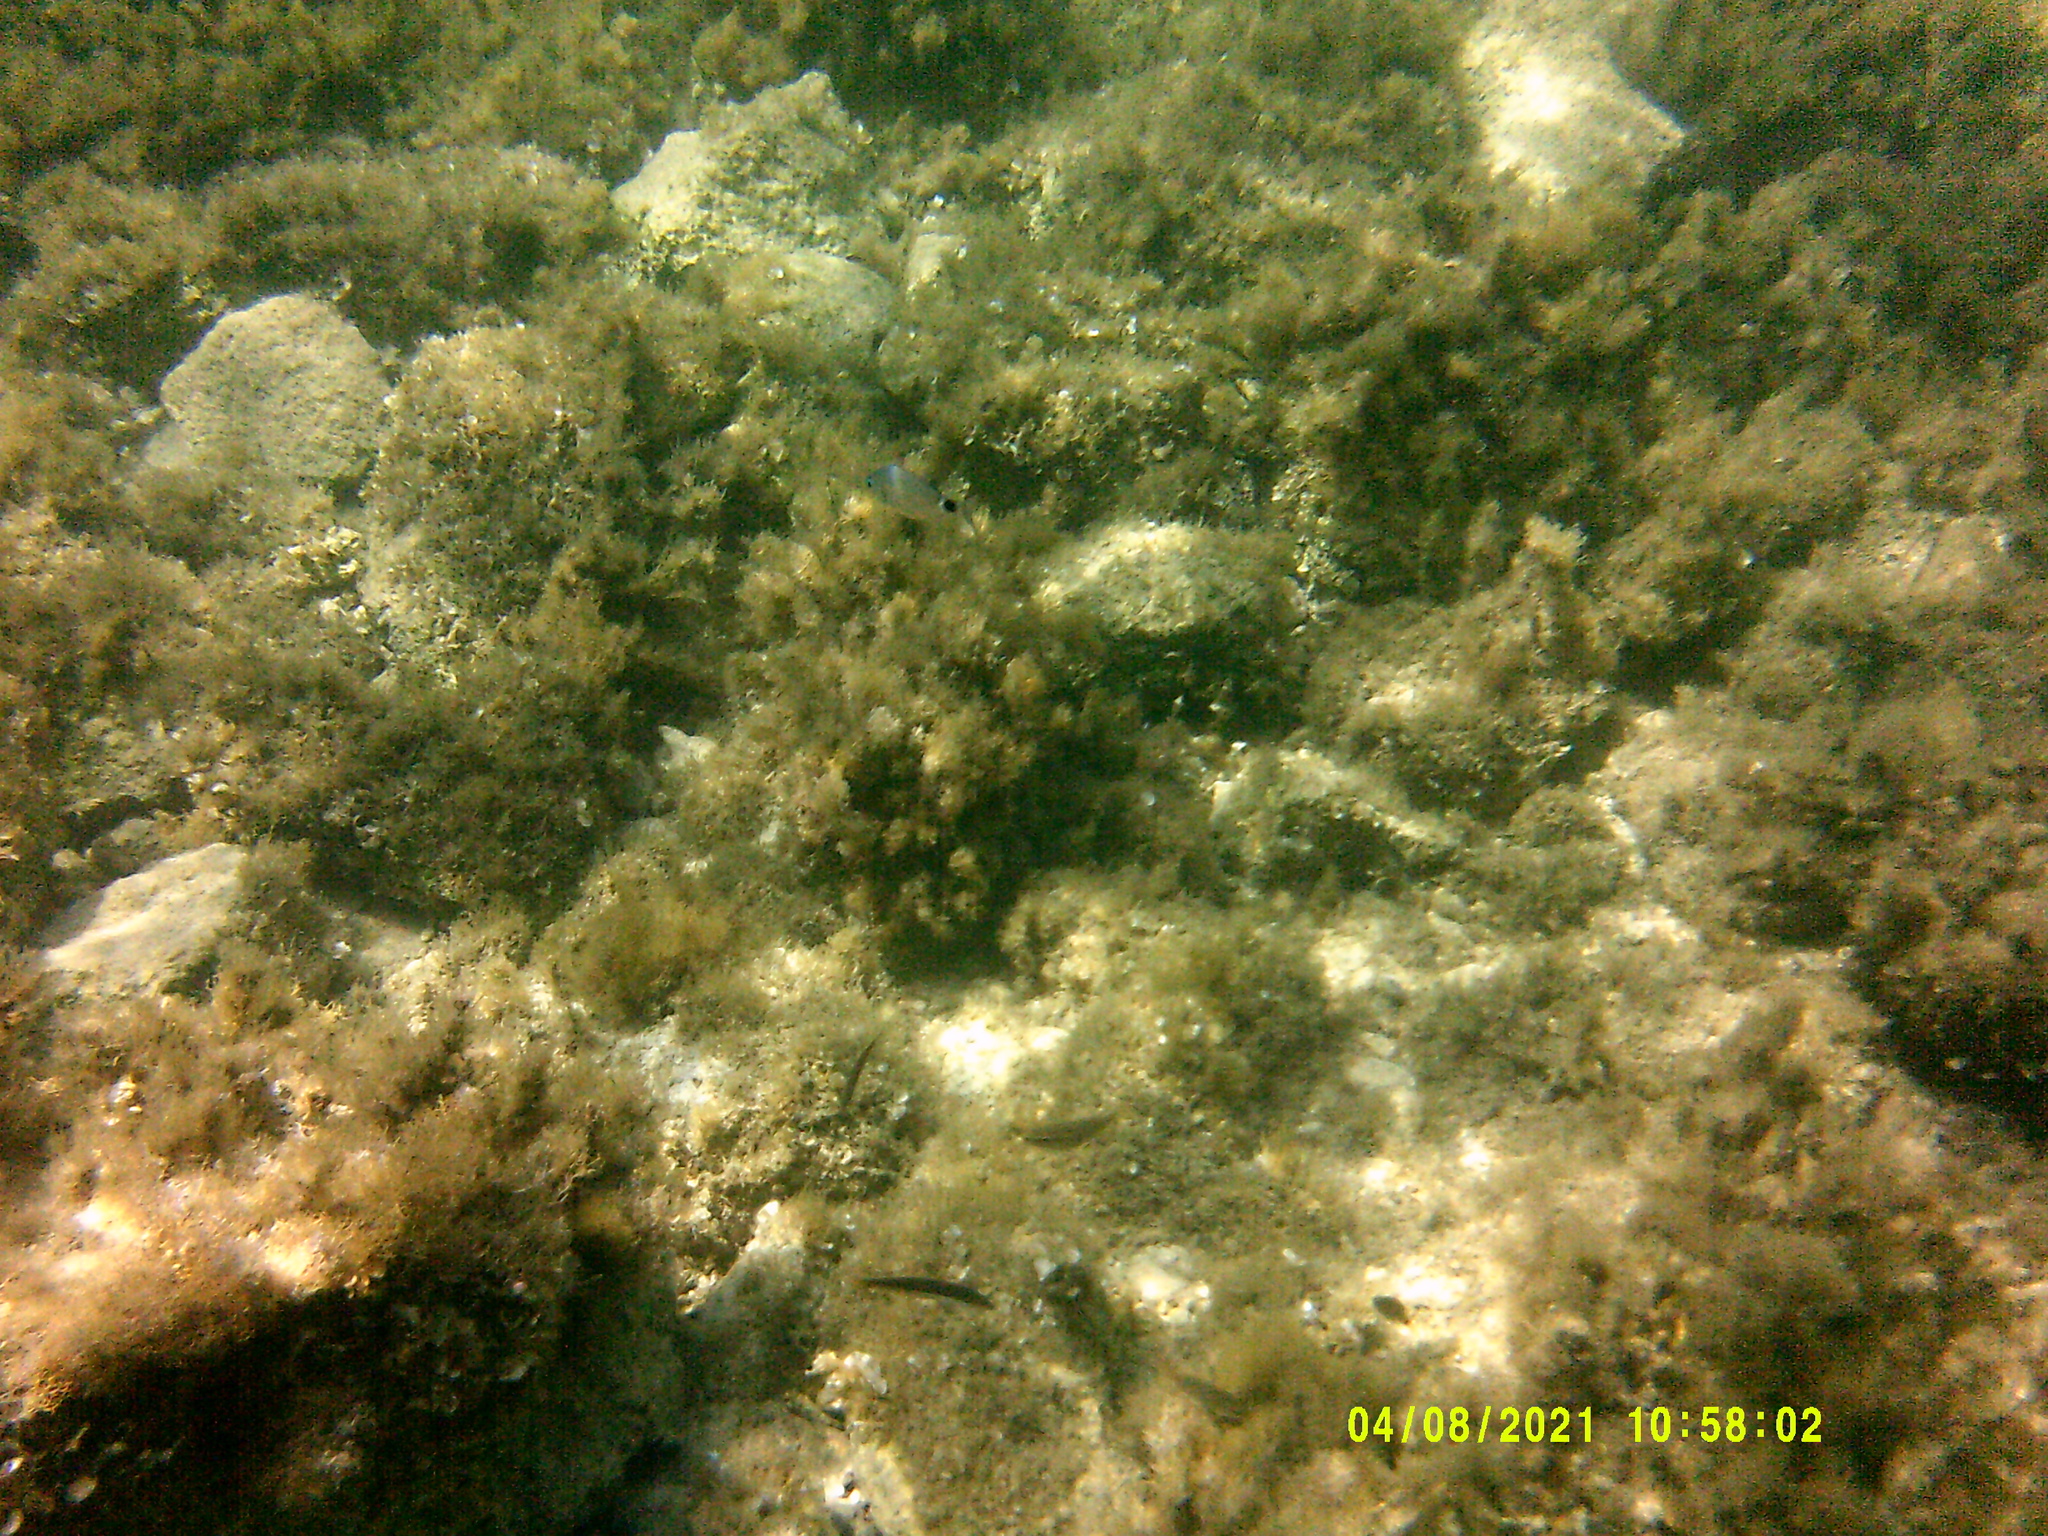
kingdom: Animalia
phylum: Chordata
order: Perciformes
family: Sparidae
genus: Oblada
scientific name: Oblada melanura
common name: Saddled seabream
